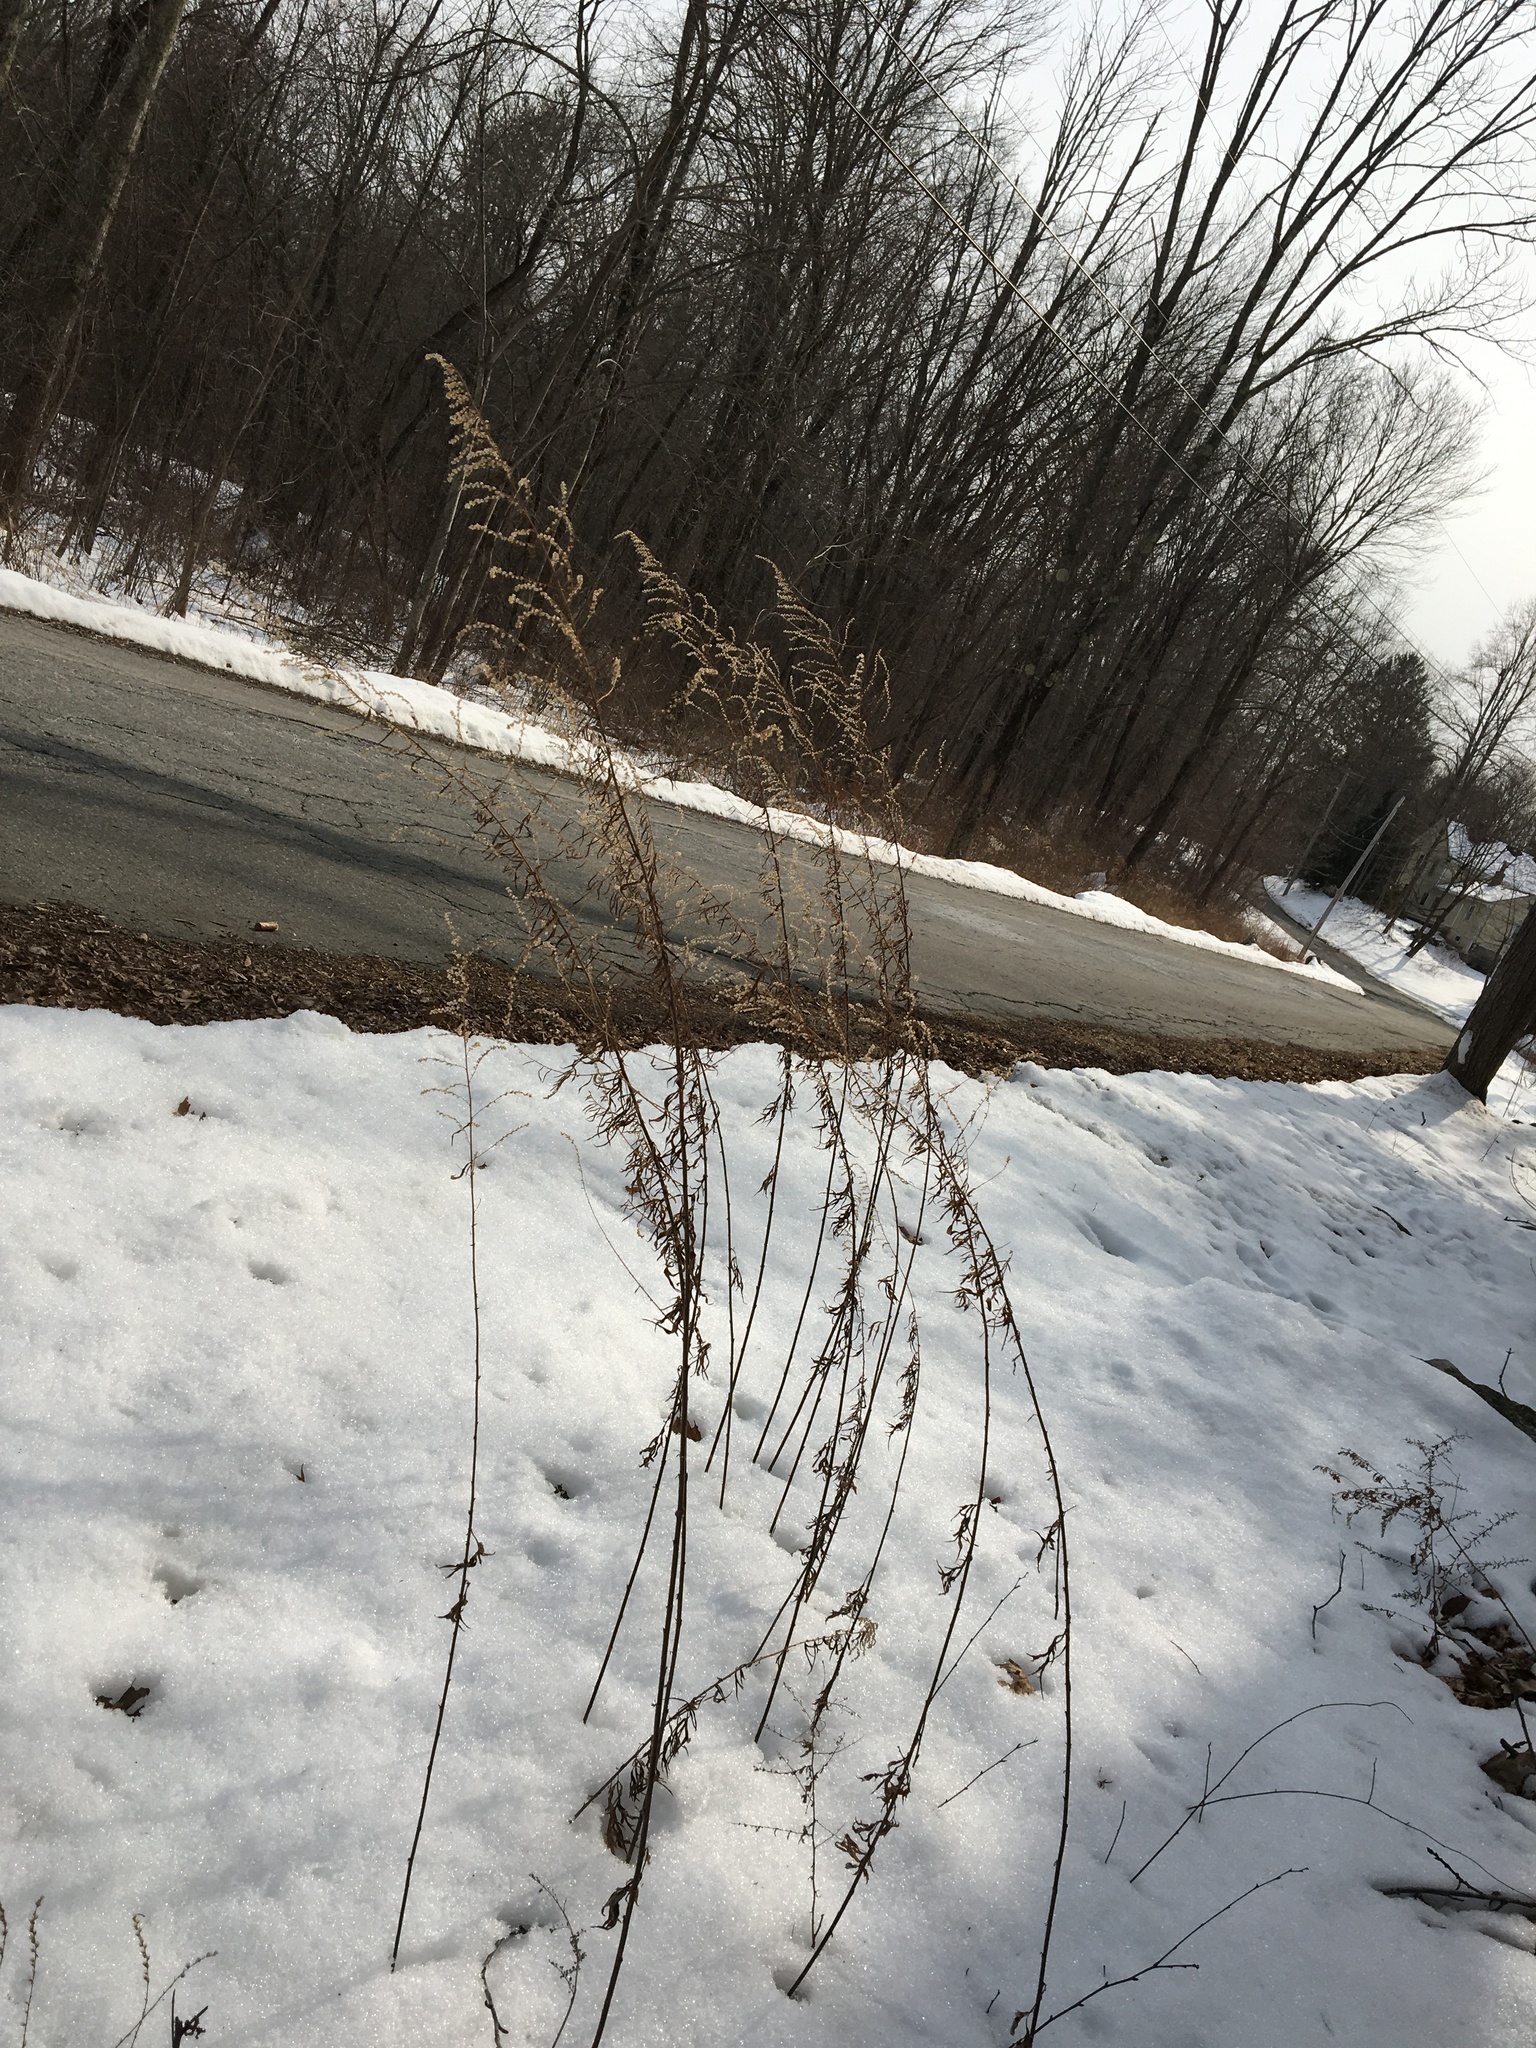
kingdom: Plantae
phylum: Tracheophyta
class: Magnoliopsida
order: Asterales
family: Asteraceae
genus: Artemisia
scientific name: Artemisia vulgaris
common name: Mugwort
